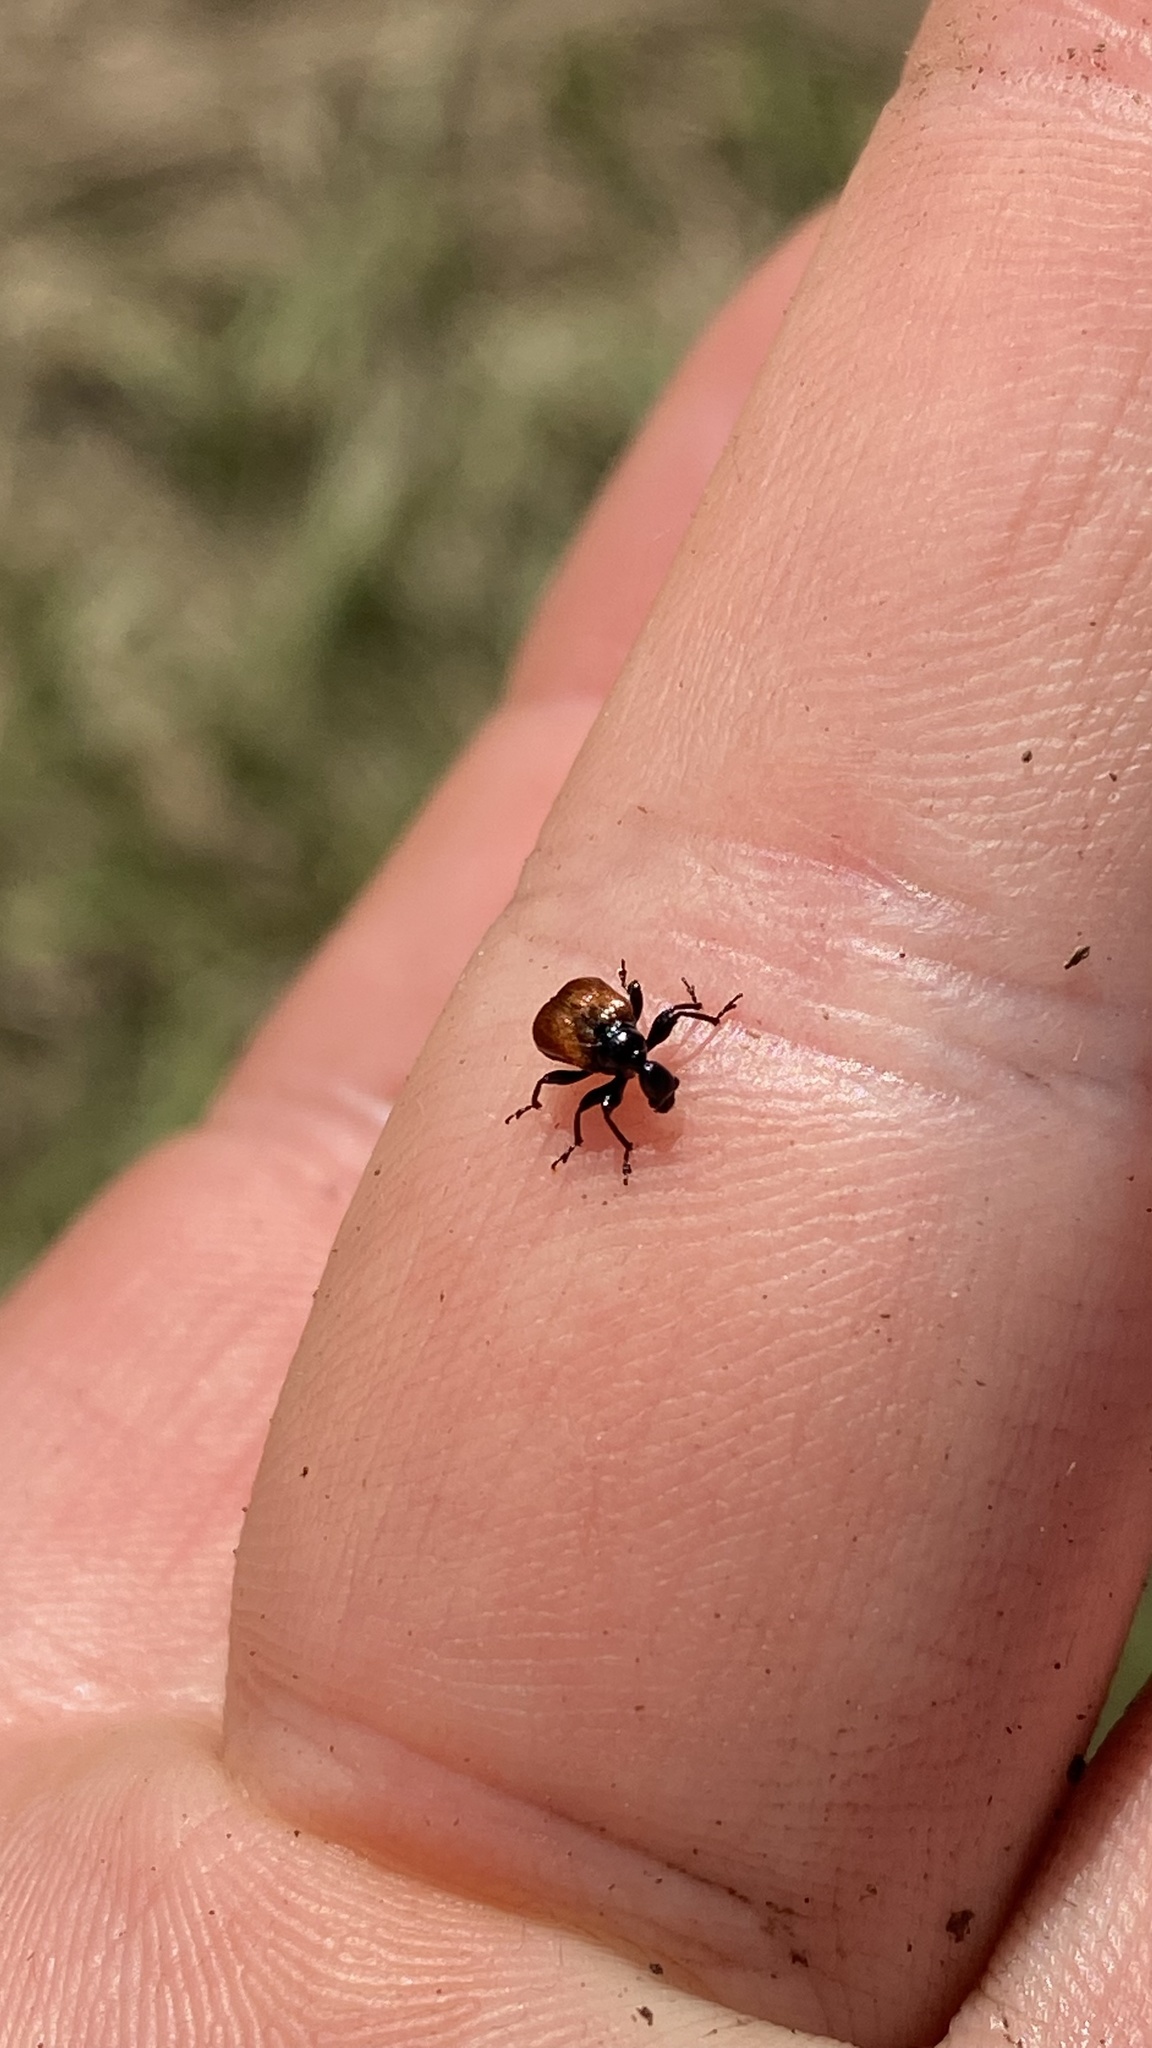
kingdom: Animalia
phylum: Arthropoda
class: Insecta
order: Coleoptera
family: Attelabidae
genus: Apoderus
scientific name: Apoderus coryli
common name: Hazel leaf roller
